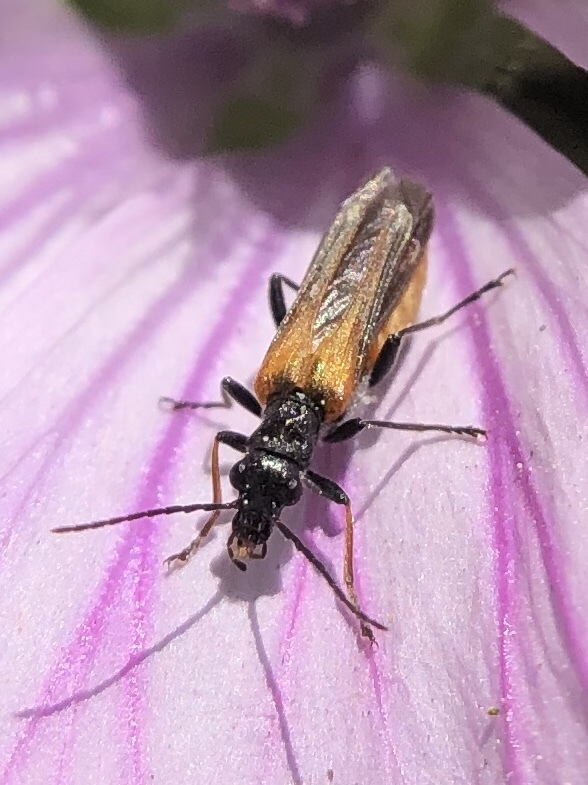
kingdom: Animalia
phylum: Arthropoda
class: Insecta
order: Coleoptera
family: Oedemeridae
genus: Oedemera
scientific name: Oedemera simplex
